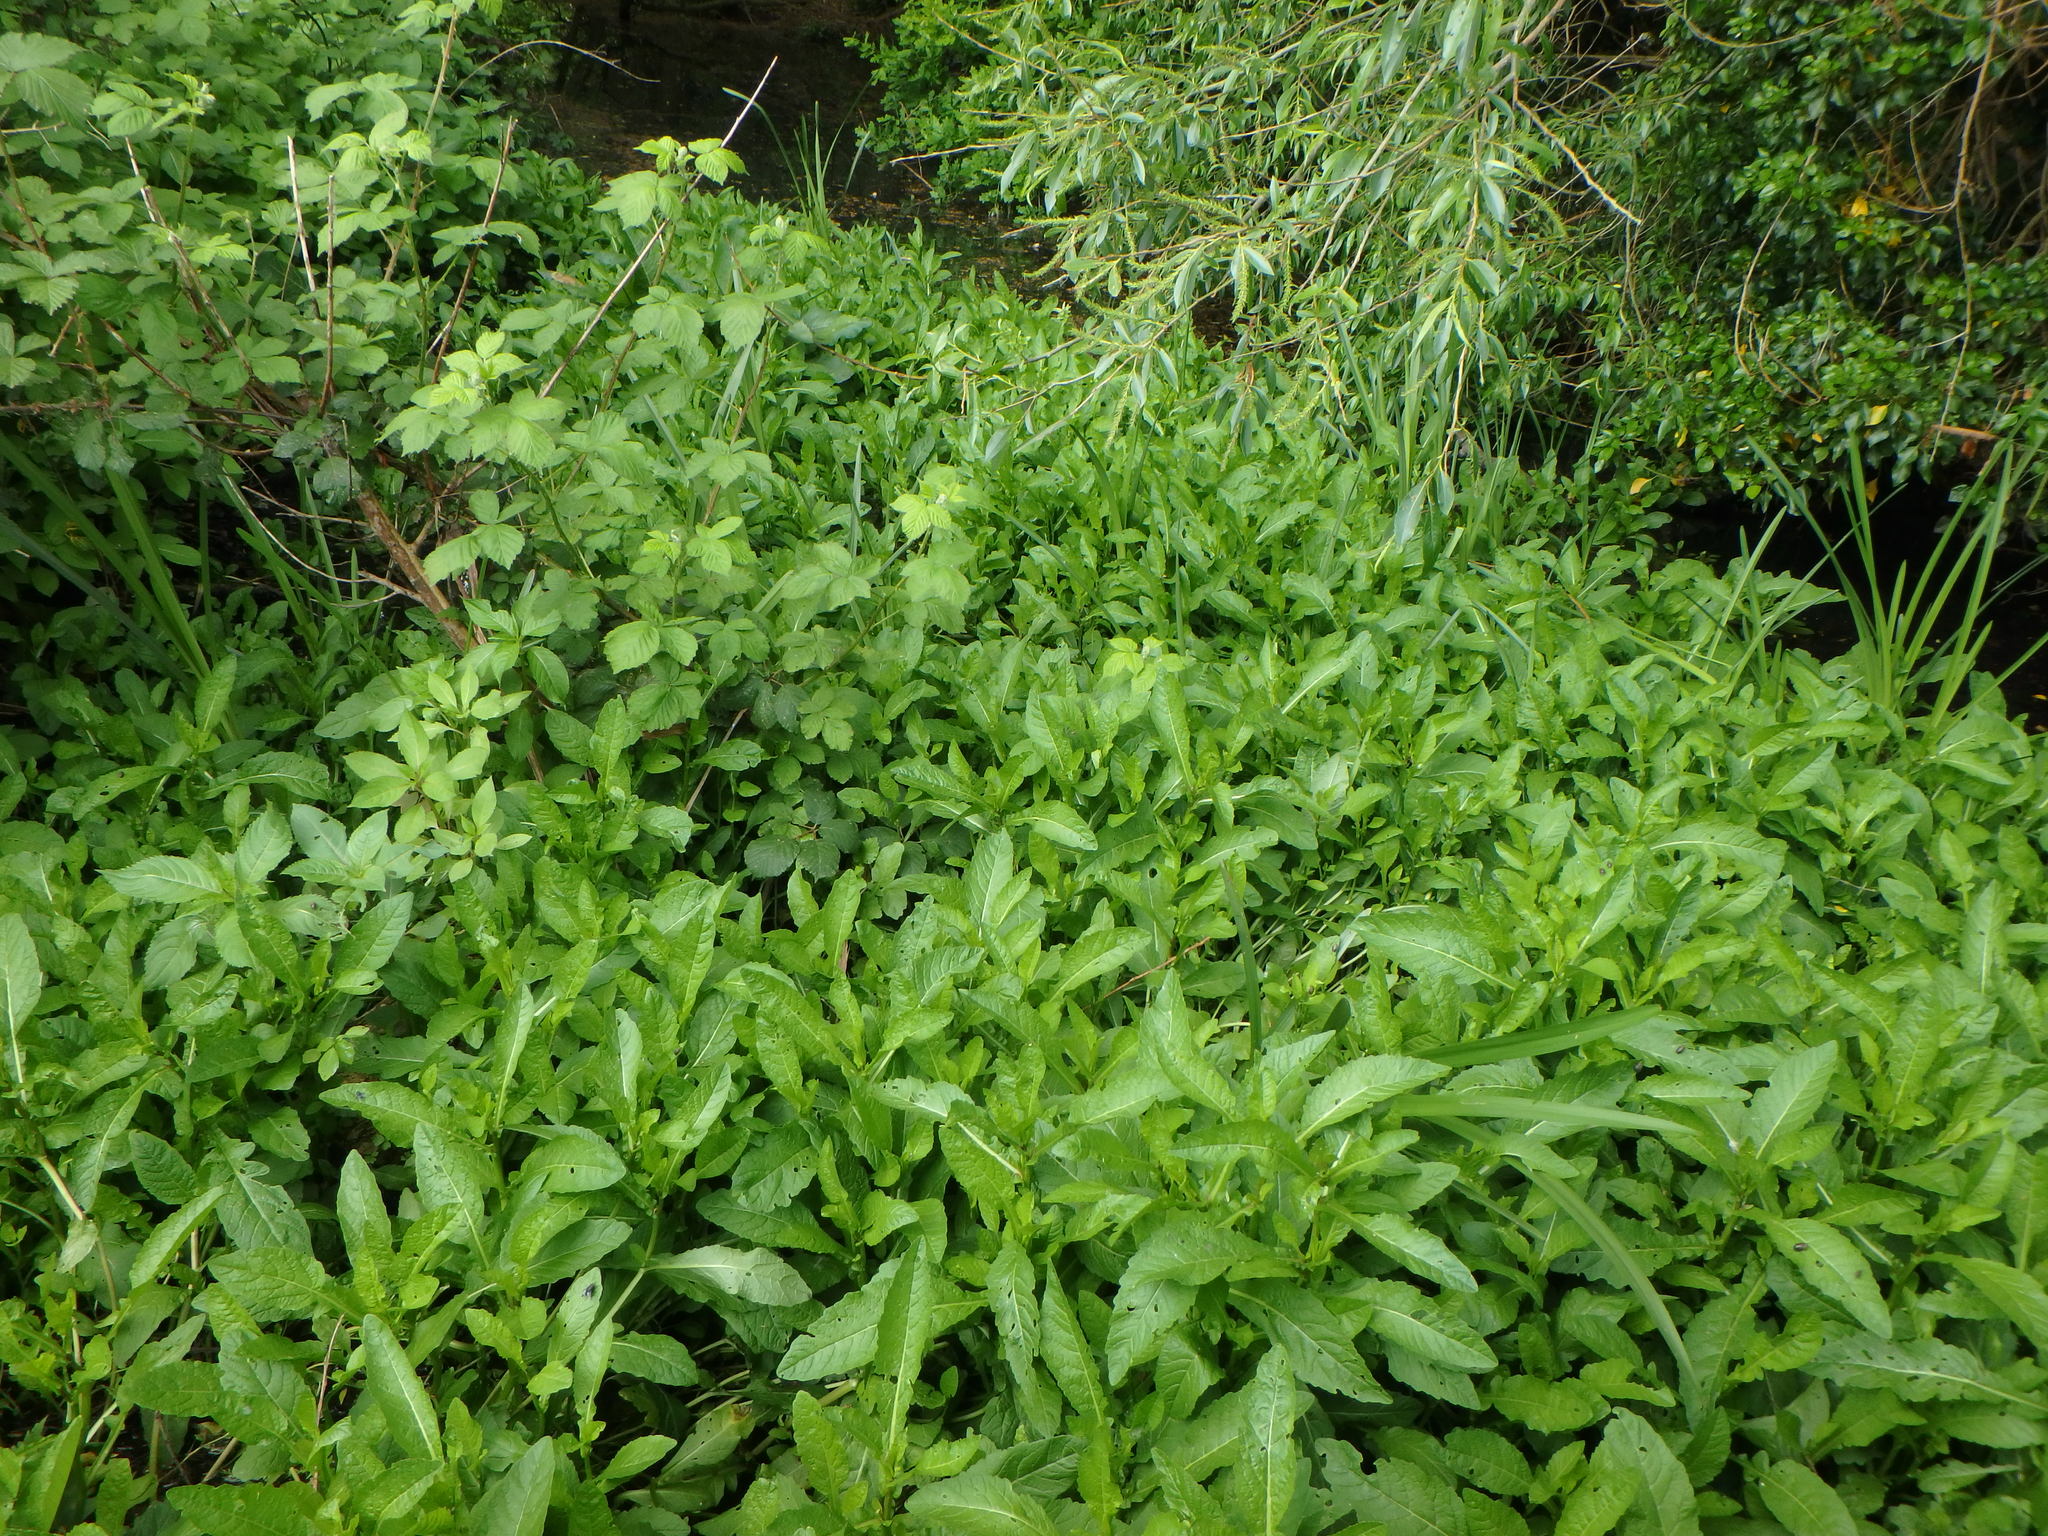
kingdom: Plantae
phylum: Tracheophyta
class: Magnoliopsida
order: Brassicales
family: Brassicaceae
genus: Rorippa
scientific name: Rorippa amphibia
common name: Great yellow-cress
